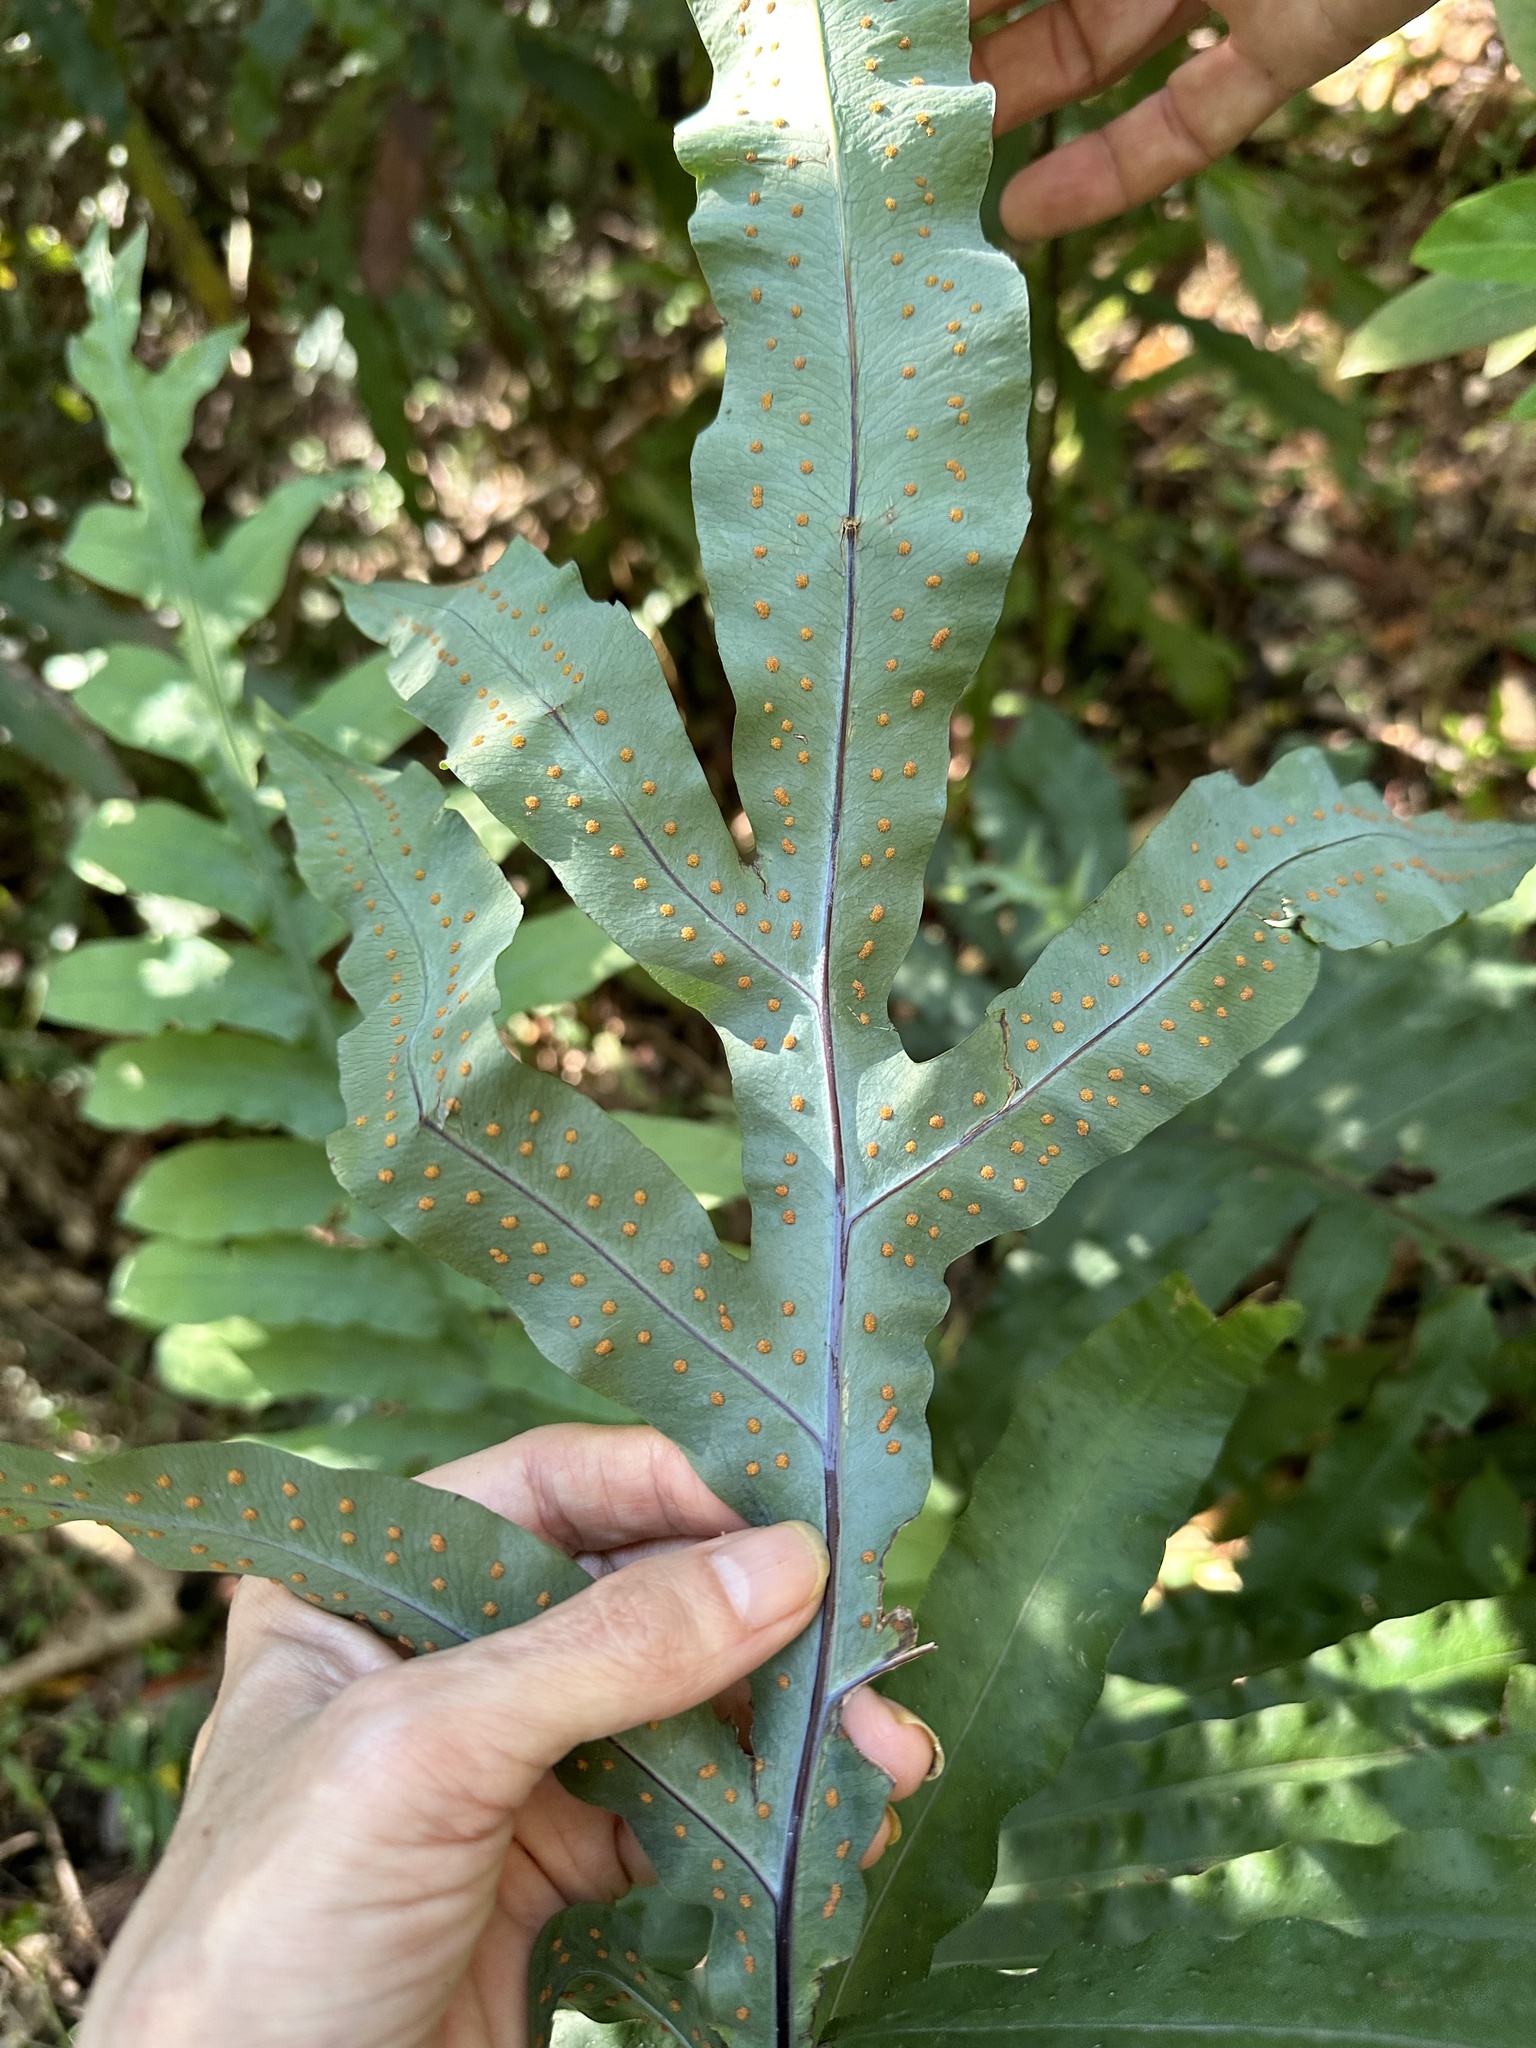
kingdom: Plantae
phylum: Tracheophyta
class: Polypodiopsida
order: Polypodiales
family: Polypodiaceae
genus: Phlebodium
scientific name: Phlebodium aureum
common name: Gold-foot fern
